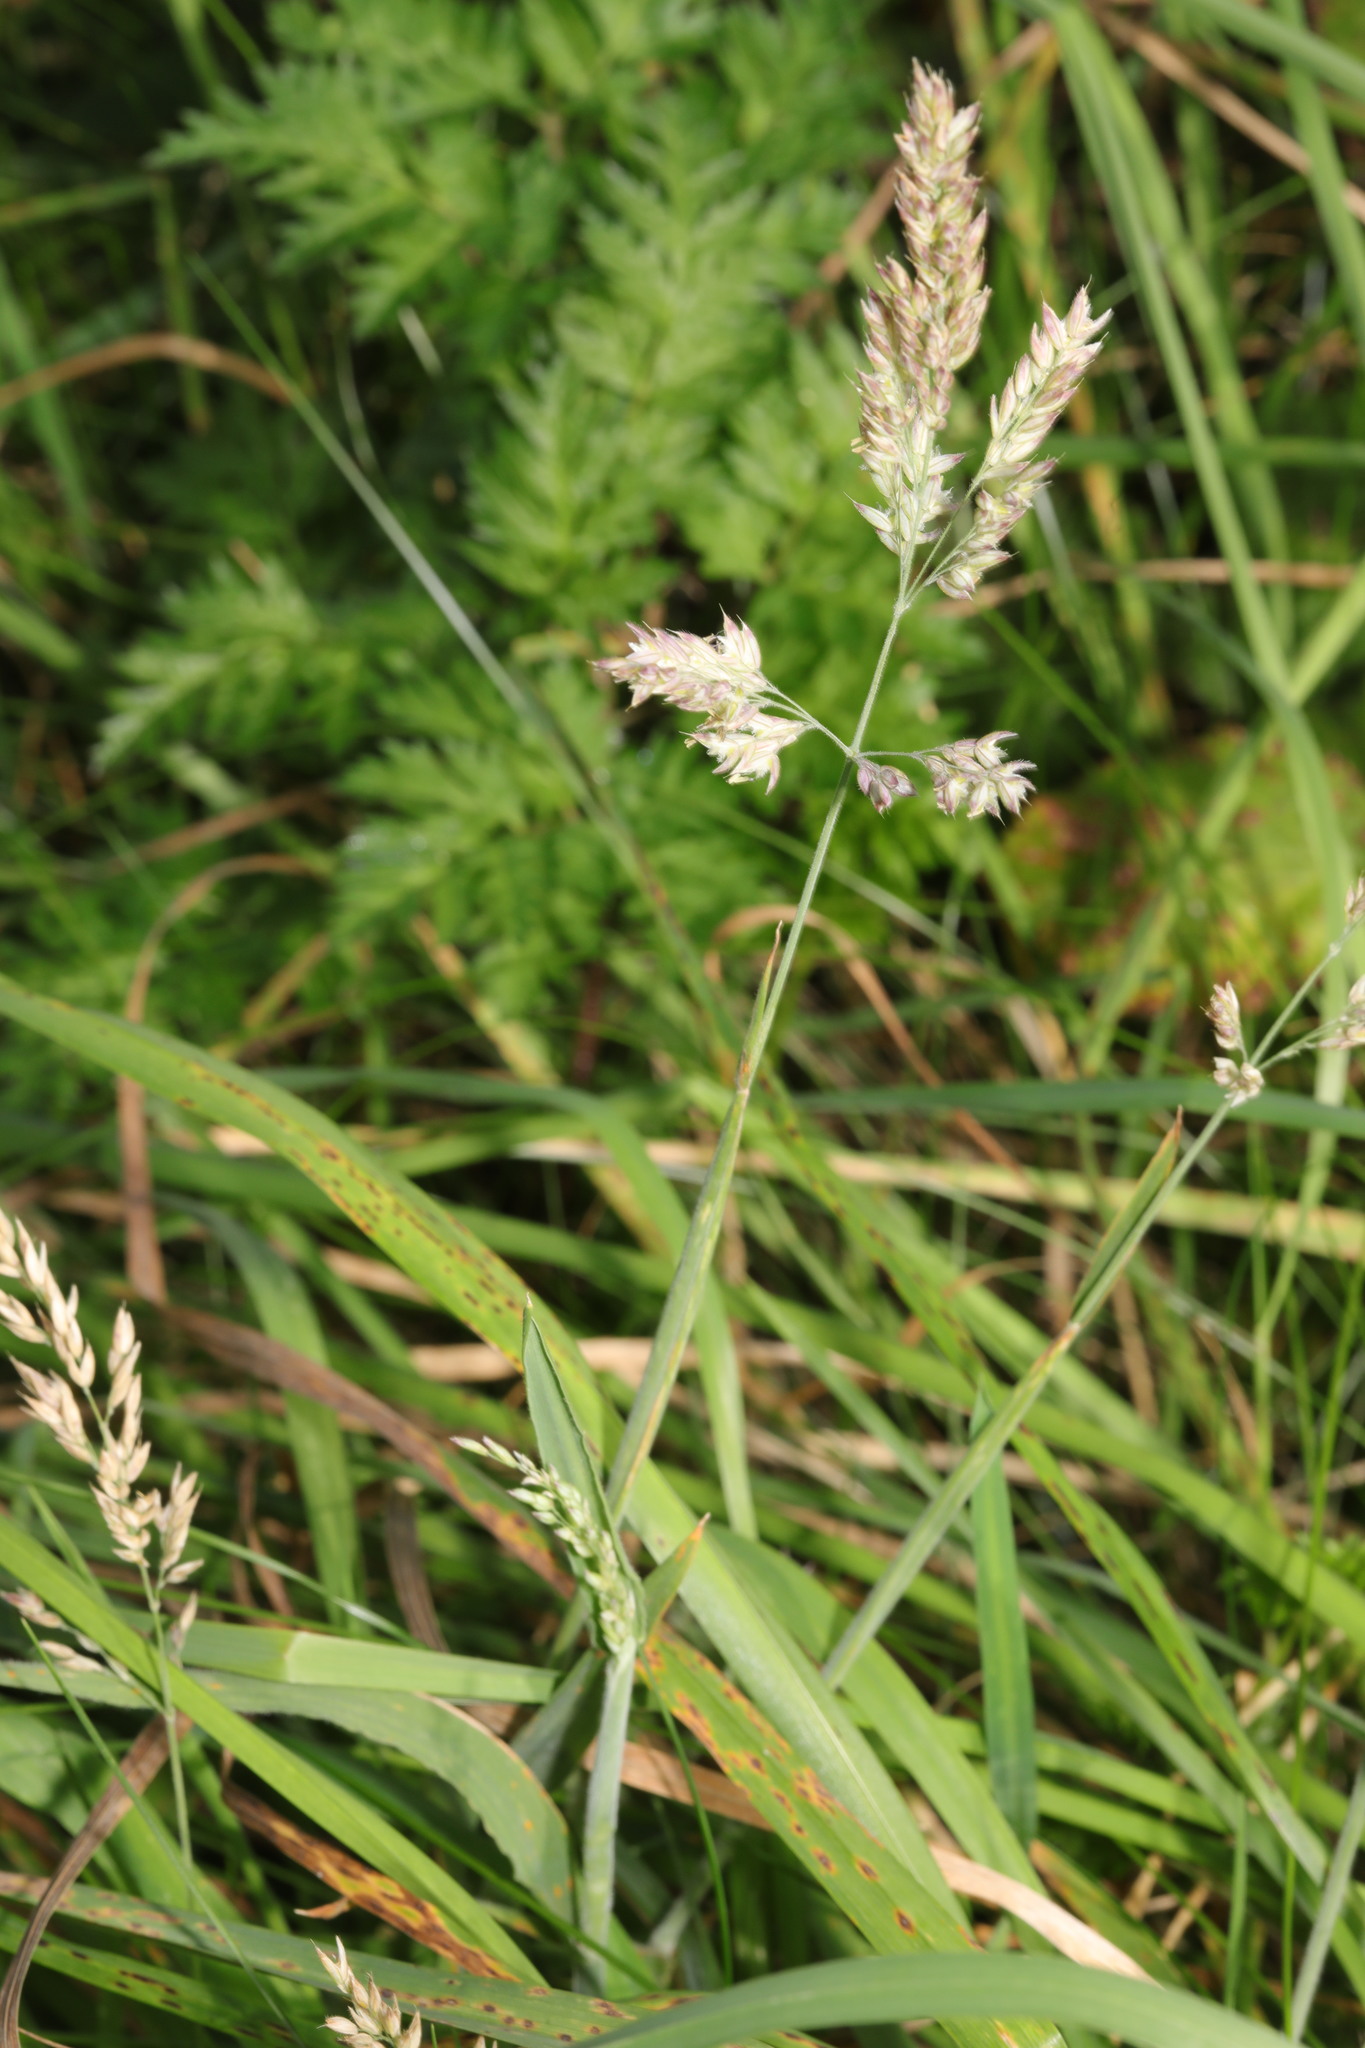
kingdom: Plantae
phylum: Tracheophyta
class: Liliopsida
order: Poales
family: Poaceae
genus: Holcus
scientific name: Holcus lanatus
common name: Yorkshire-fog
